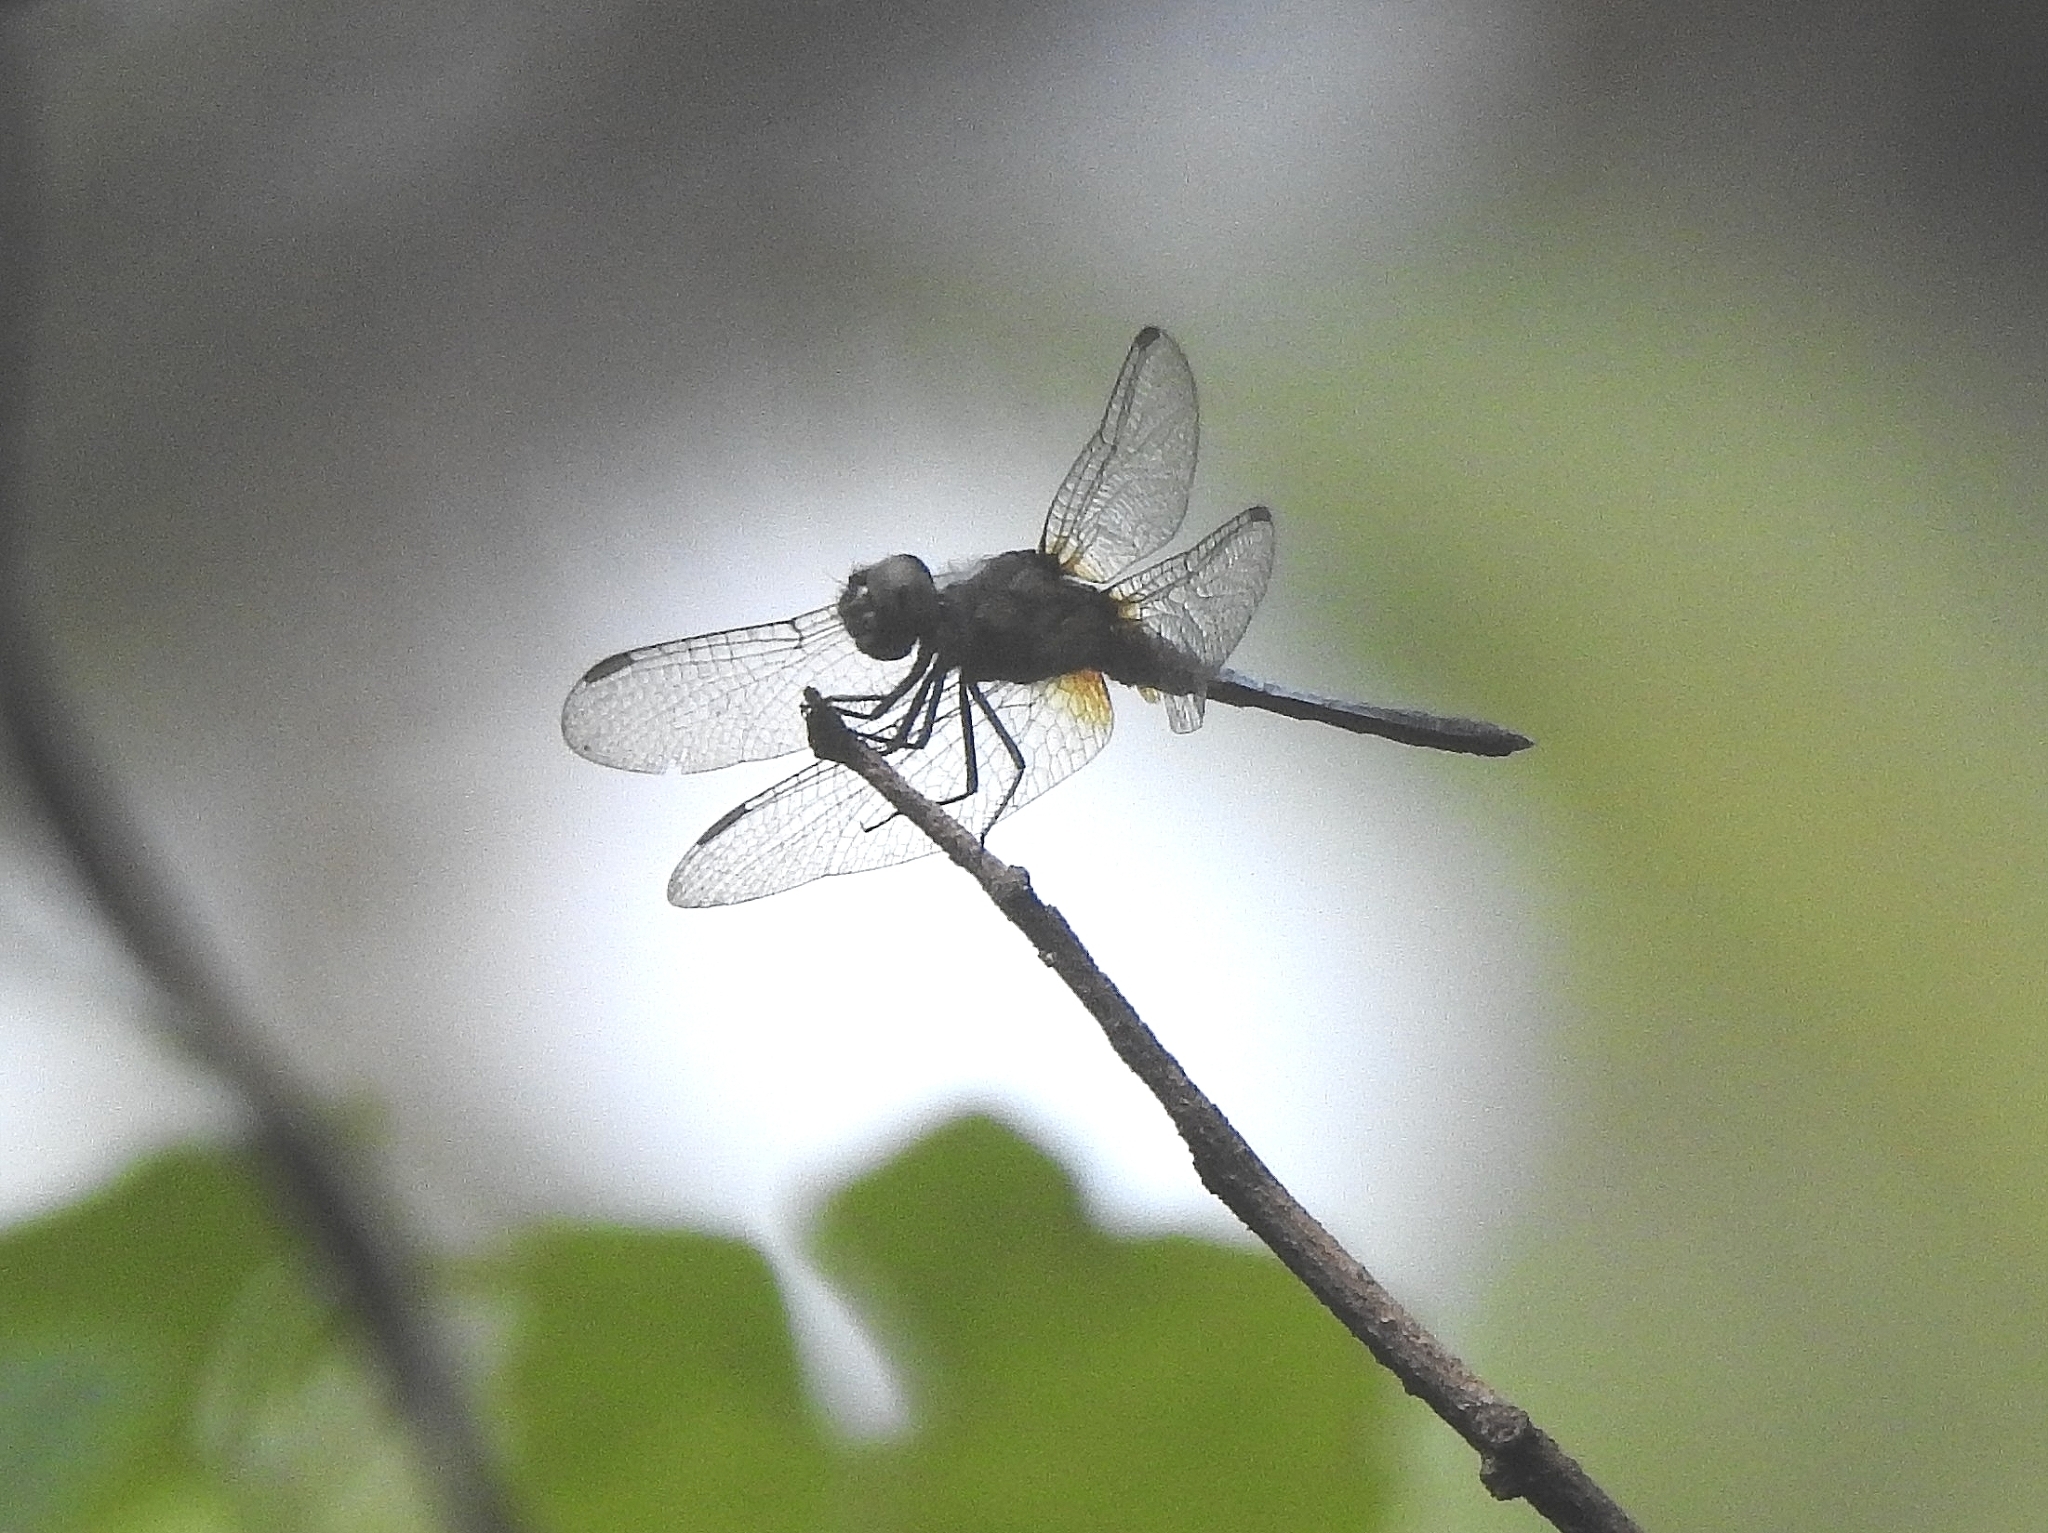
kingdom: Animalia
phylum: Arthropoda
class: Insecta
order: Odonata
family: Libellulidae
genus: Brachydiplax
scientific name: Brachydiplax chalybea
